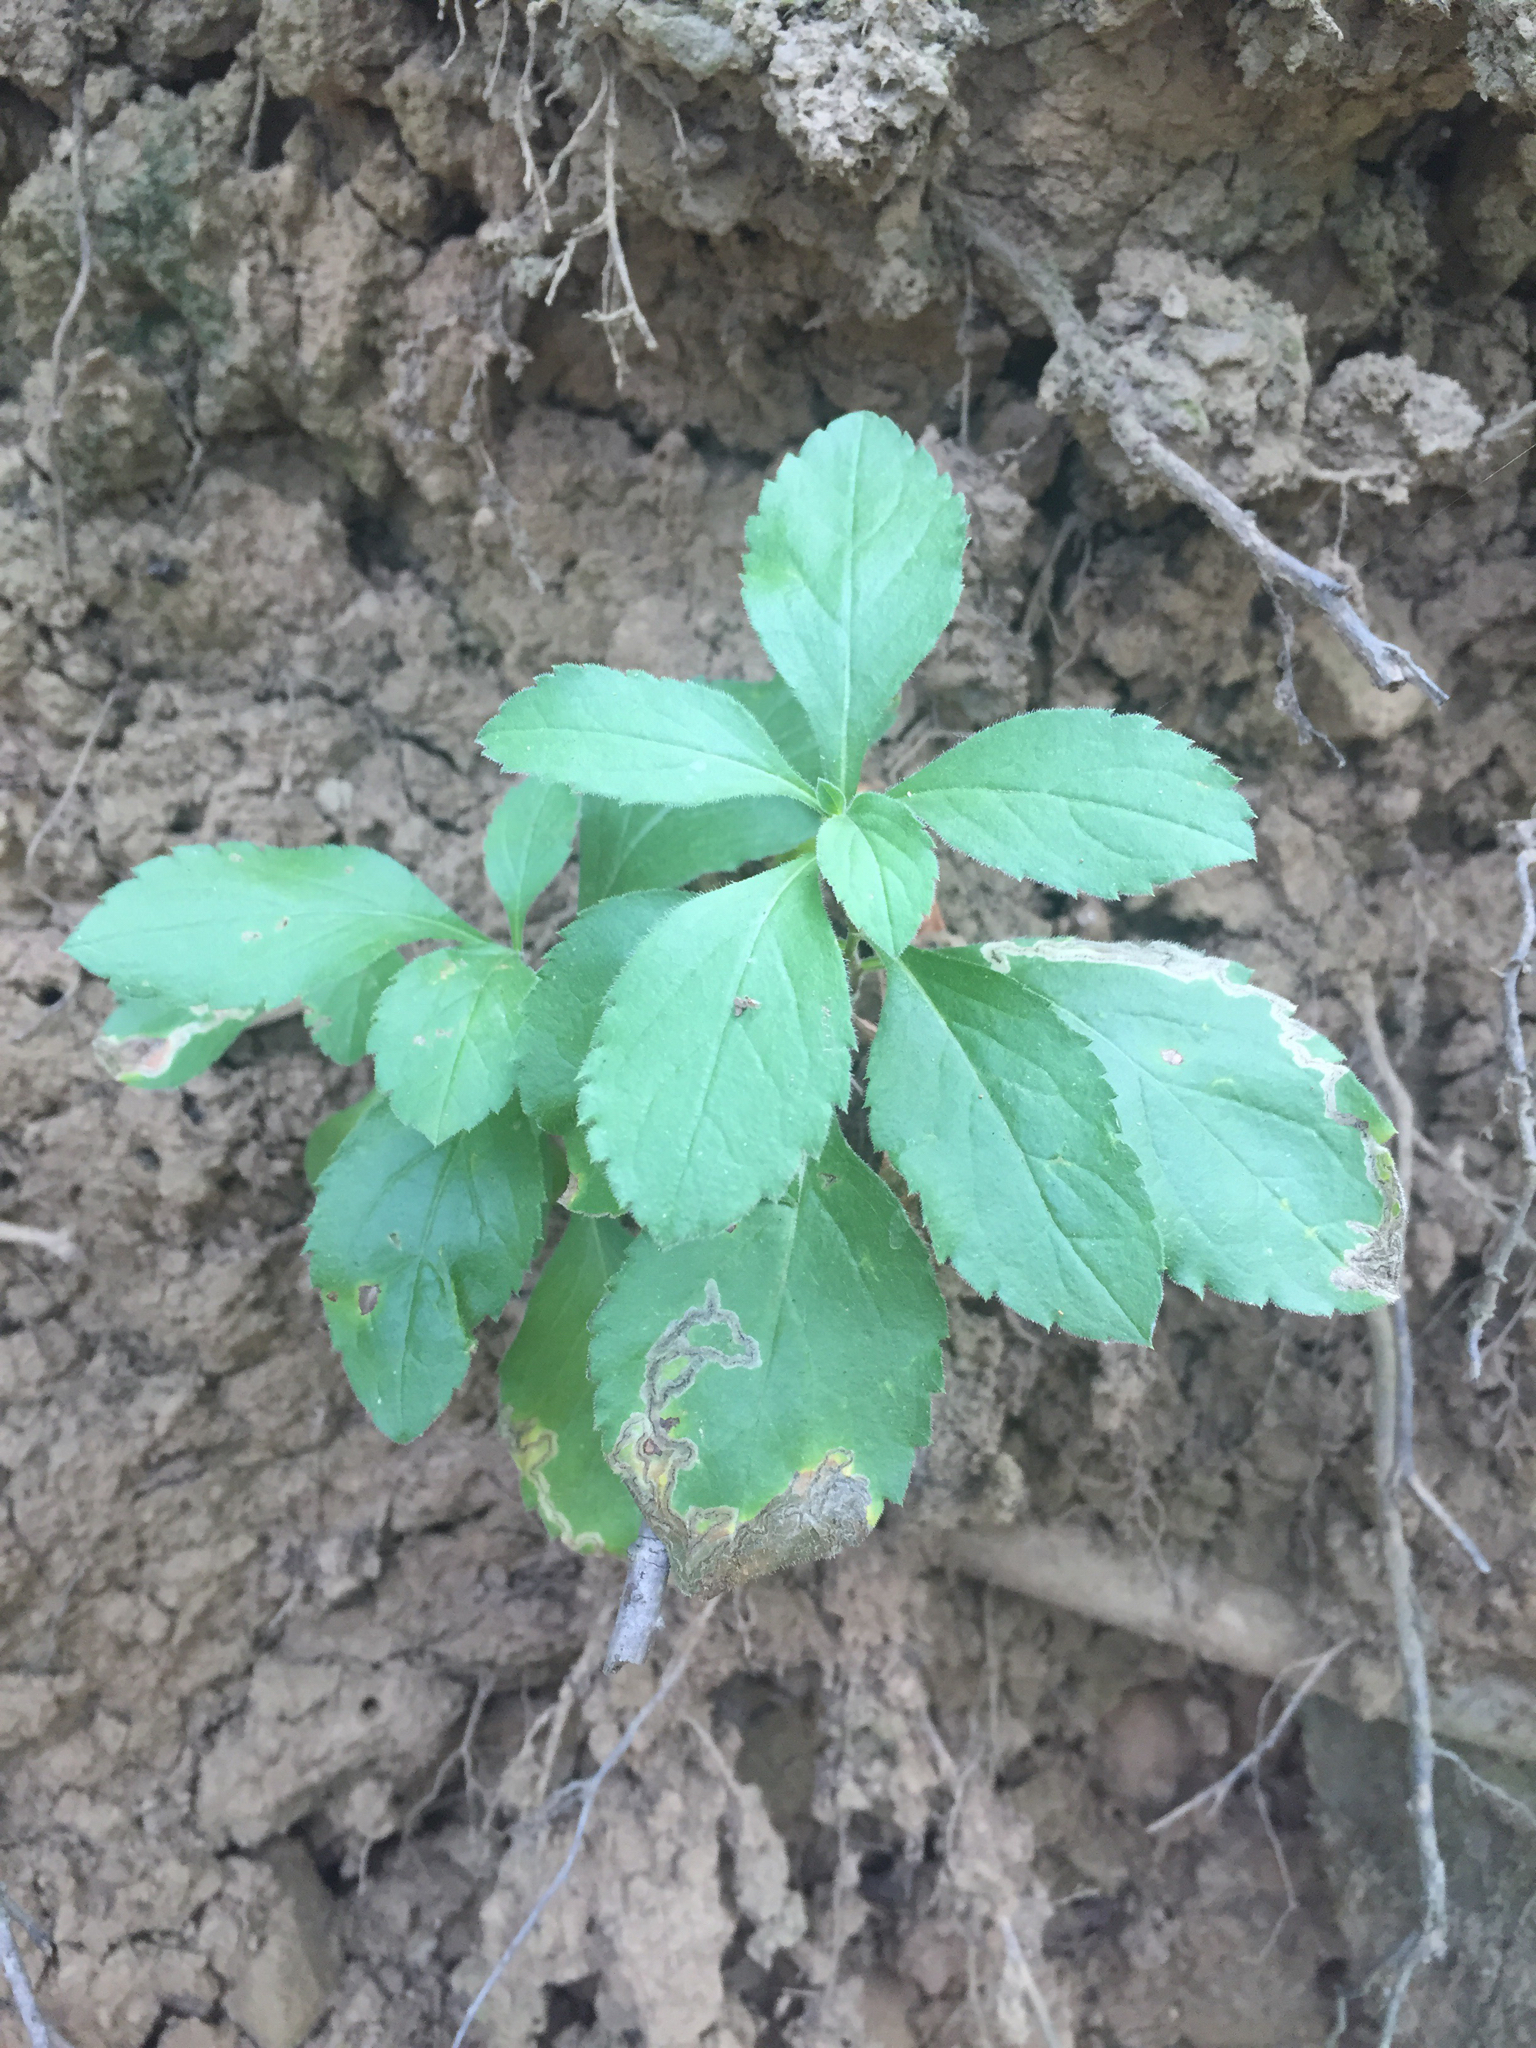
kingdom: Plantae
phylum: Tracheophyta
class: Magnoliopsida
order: Asterales
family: Asteraceae
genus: Eurybia
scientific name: Eurybia radulina
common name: Rough-leaved aster
